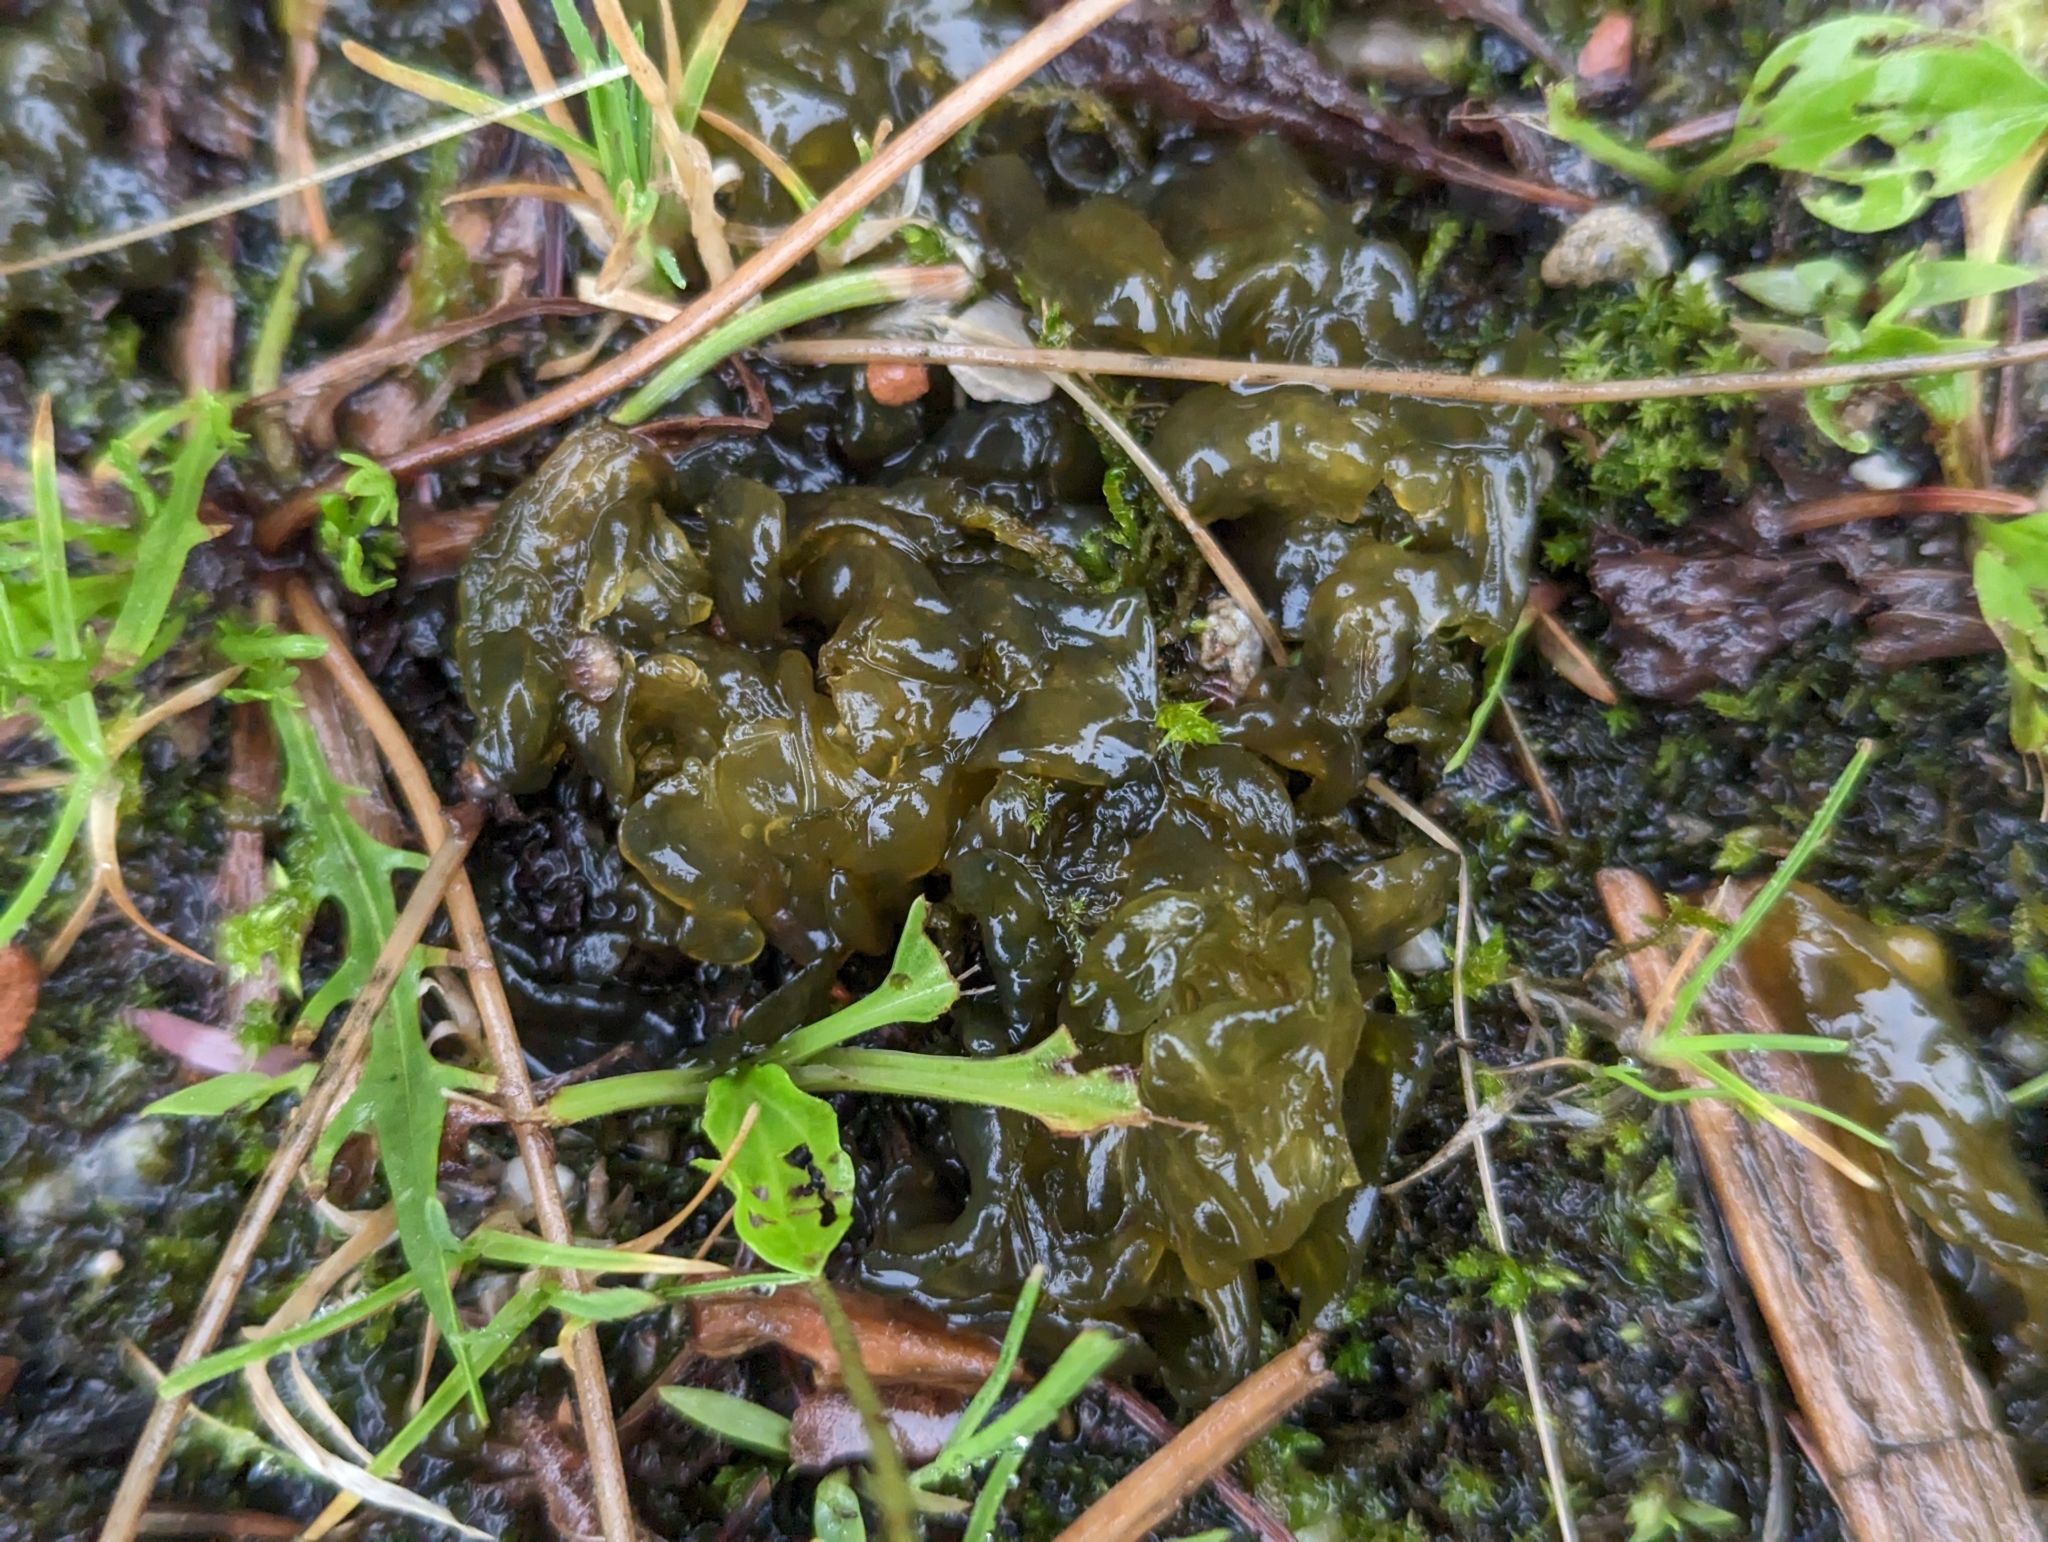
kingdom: Bacteria
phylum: Cyanobacteria
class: Cyanobacteriia
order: Cyanobacteriales
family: Nostocaceae
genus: Nostoc
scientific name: Nostoc commune
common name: Star jelly
